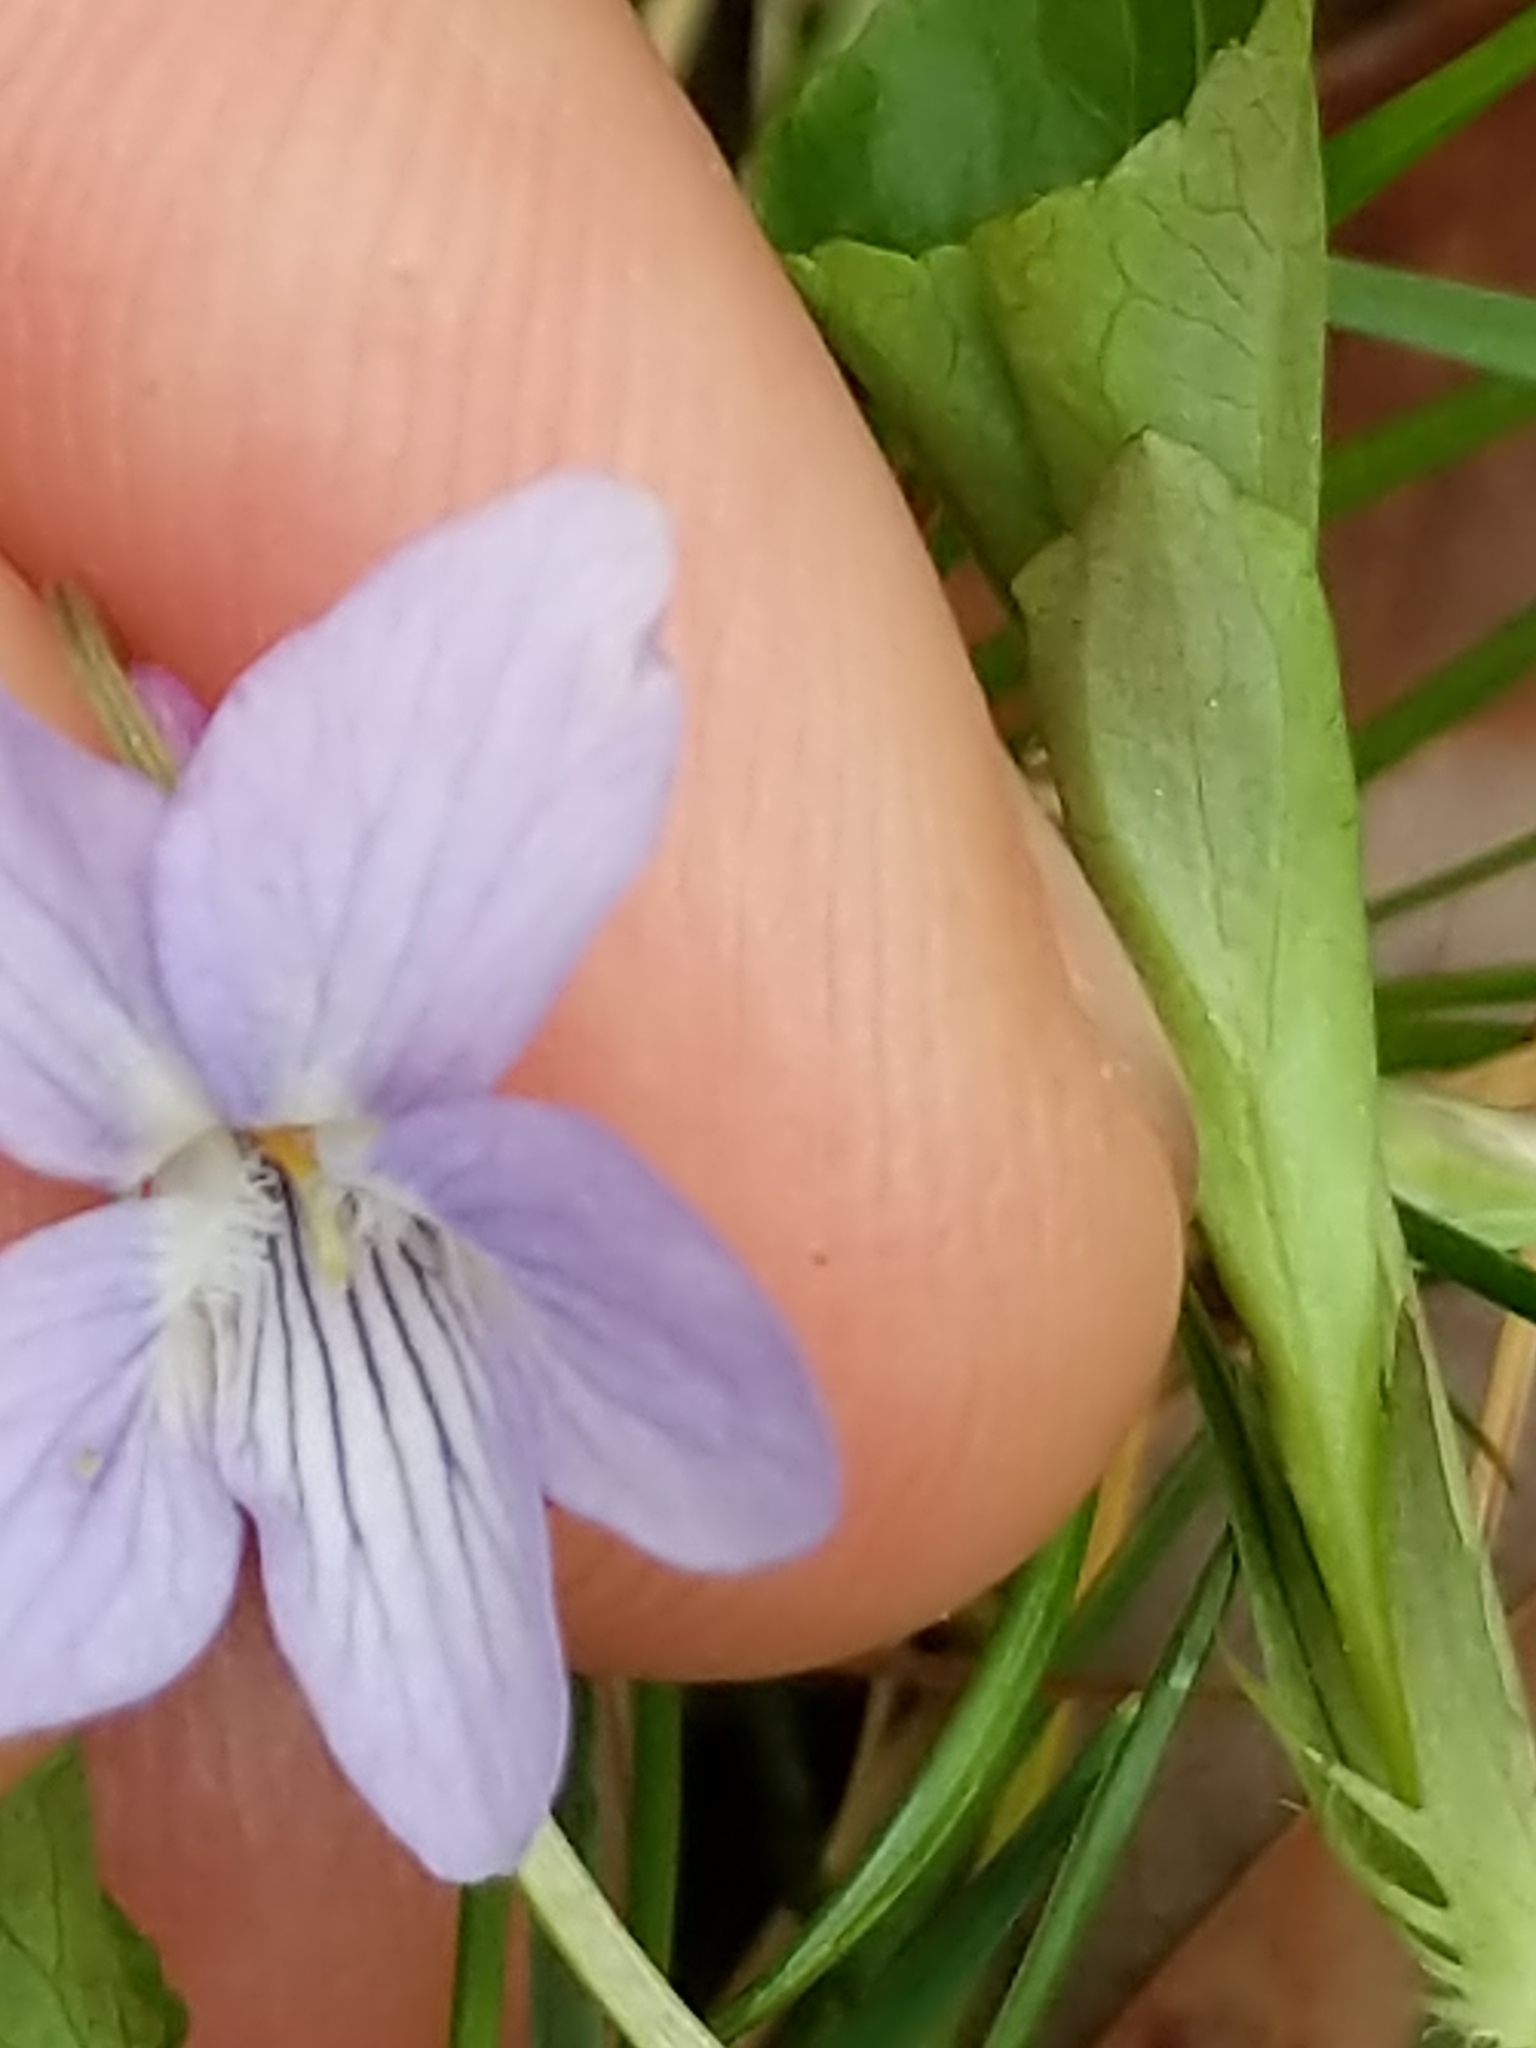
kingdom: Plantae
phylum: Tracheophyta
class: Magnoliopsida
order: Malpighiales
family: Violaceae
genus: Viola
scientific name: Viola labradorica
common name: Labrador violet
